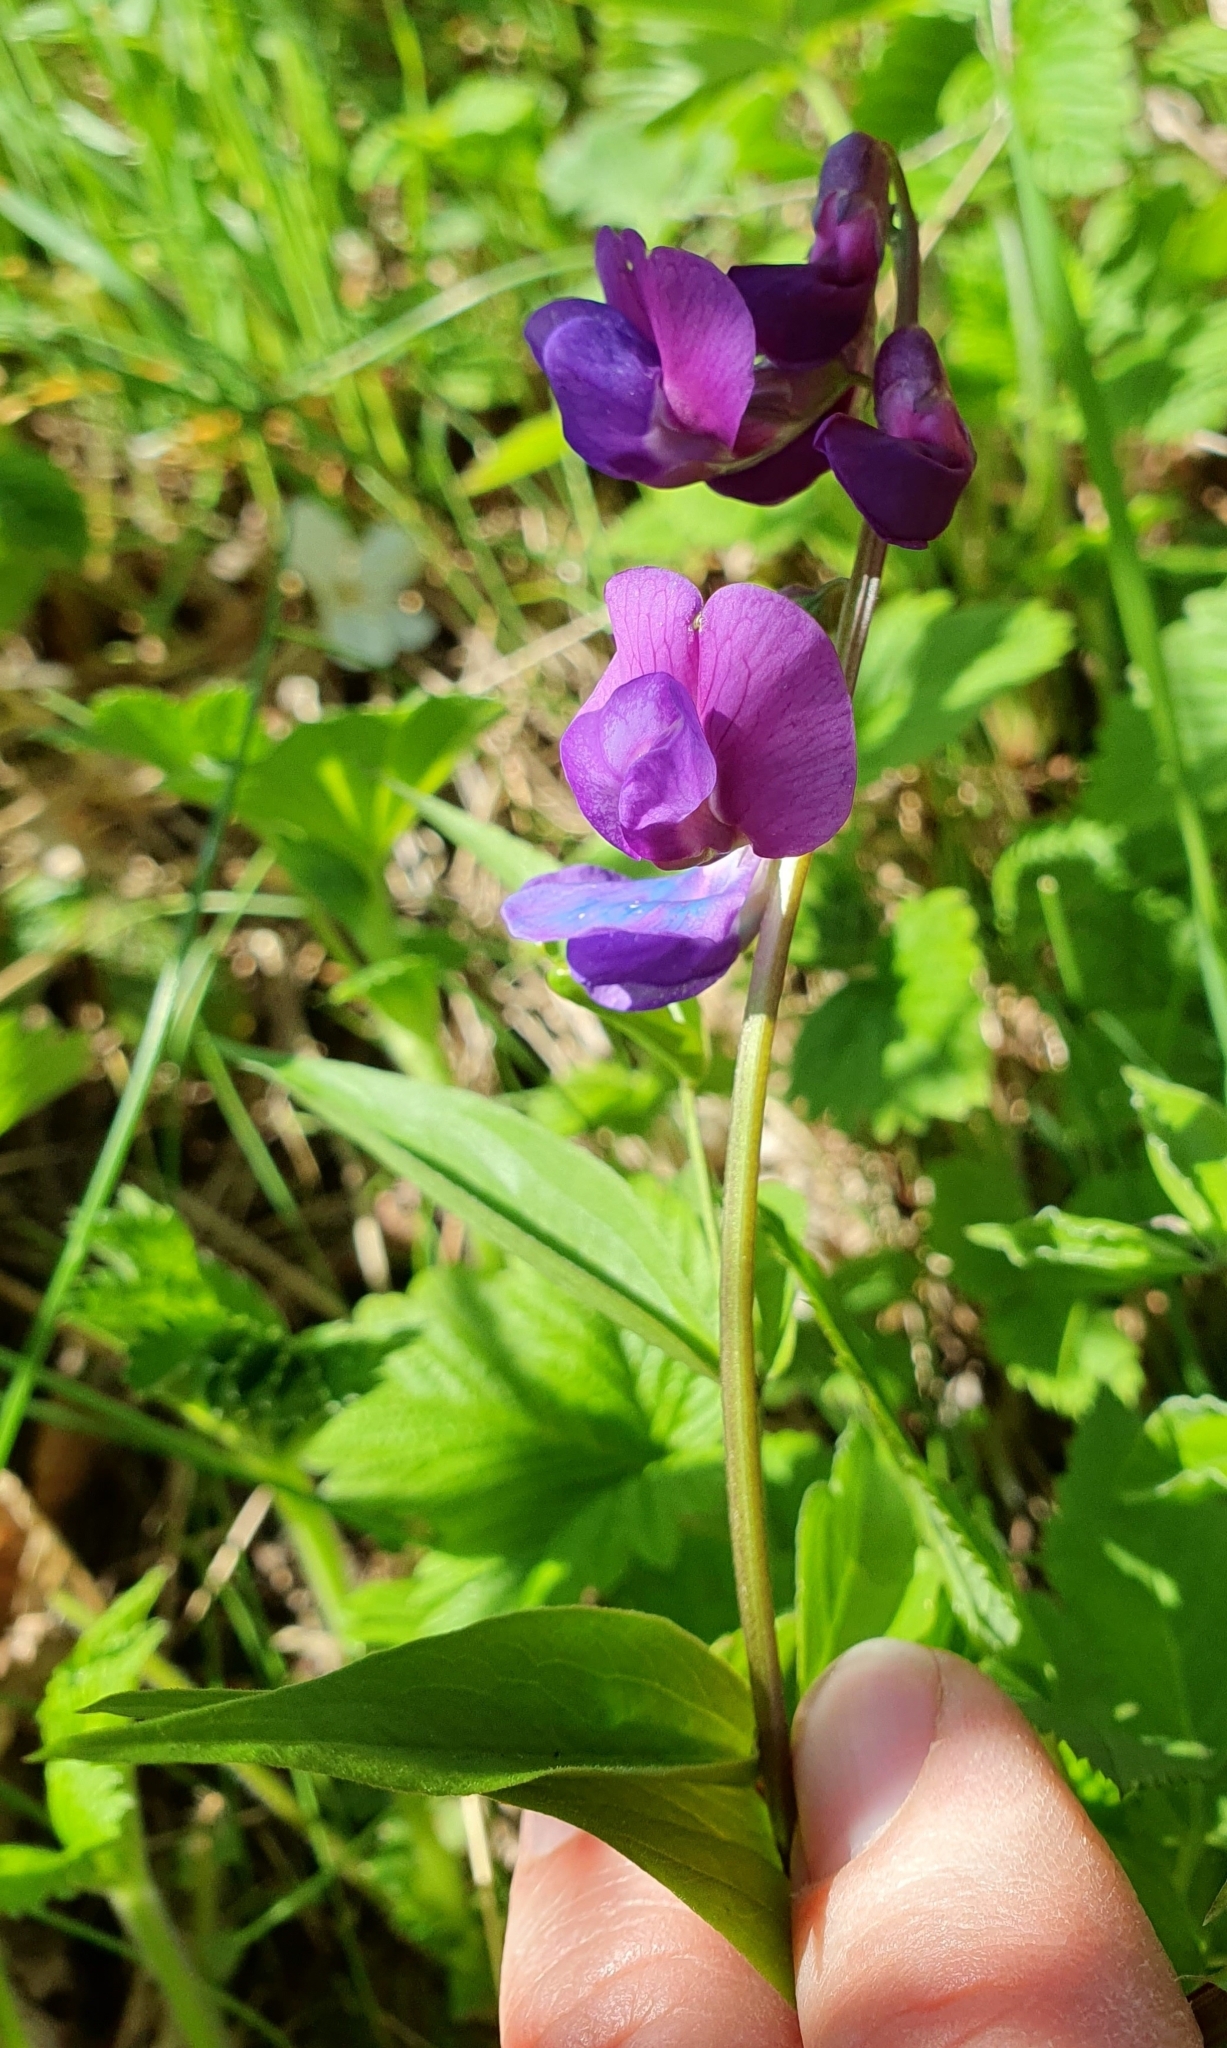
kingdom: Plantae
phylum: Tracheophyta
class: Magnoliopsida
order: Fabales
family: Fabaceae
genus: Lathyrus
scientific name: Lathyrus vernus
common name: Spring pea
